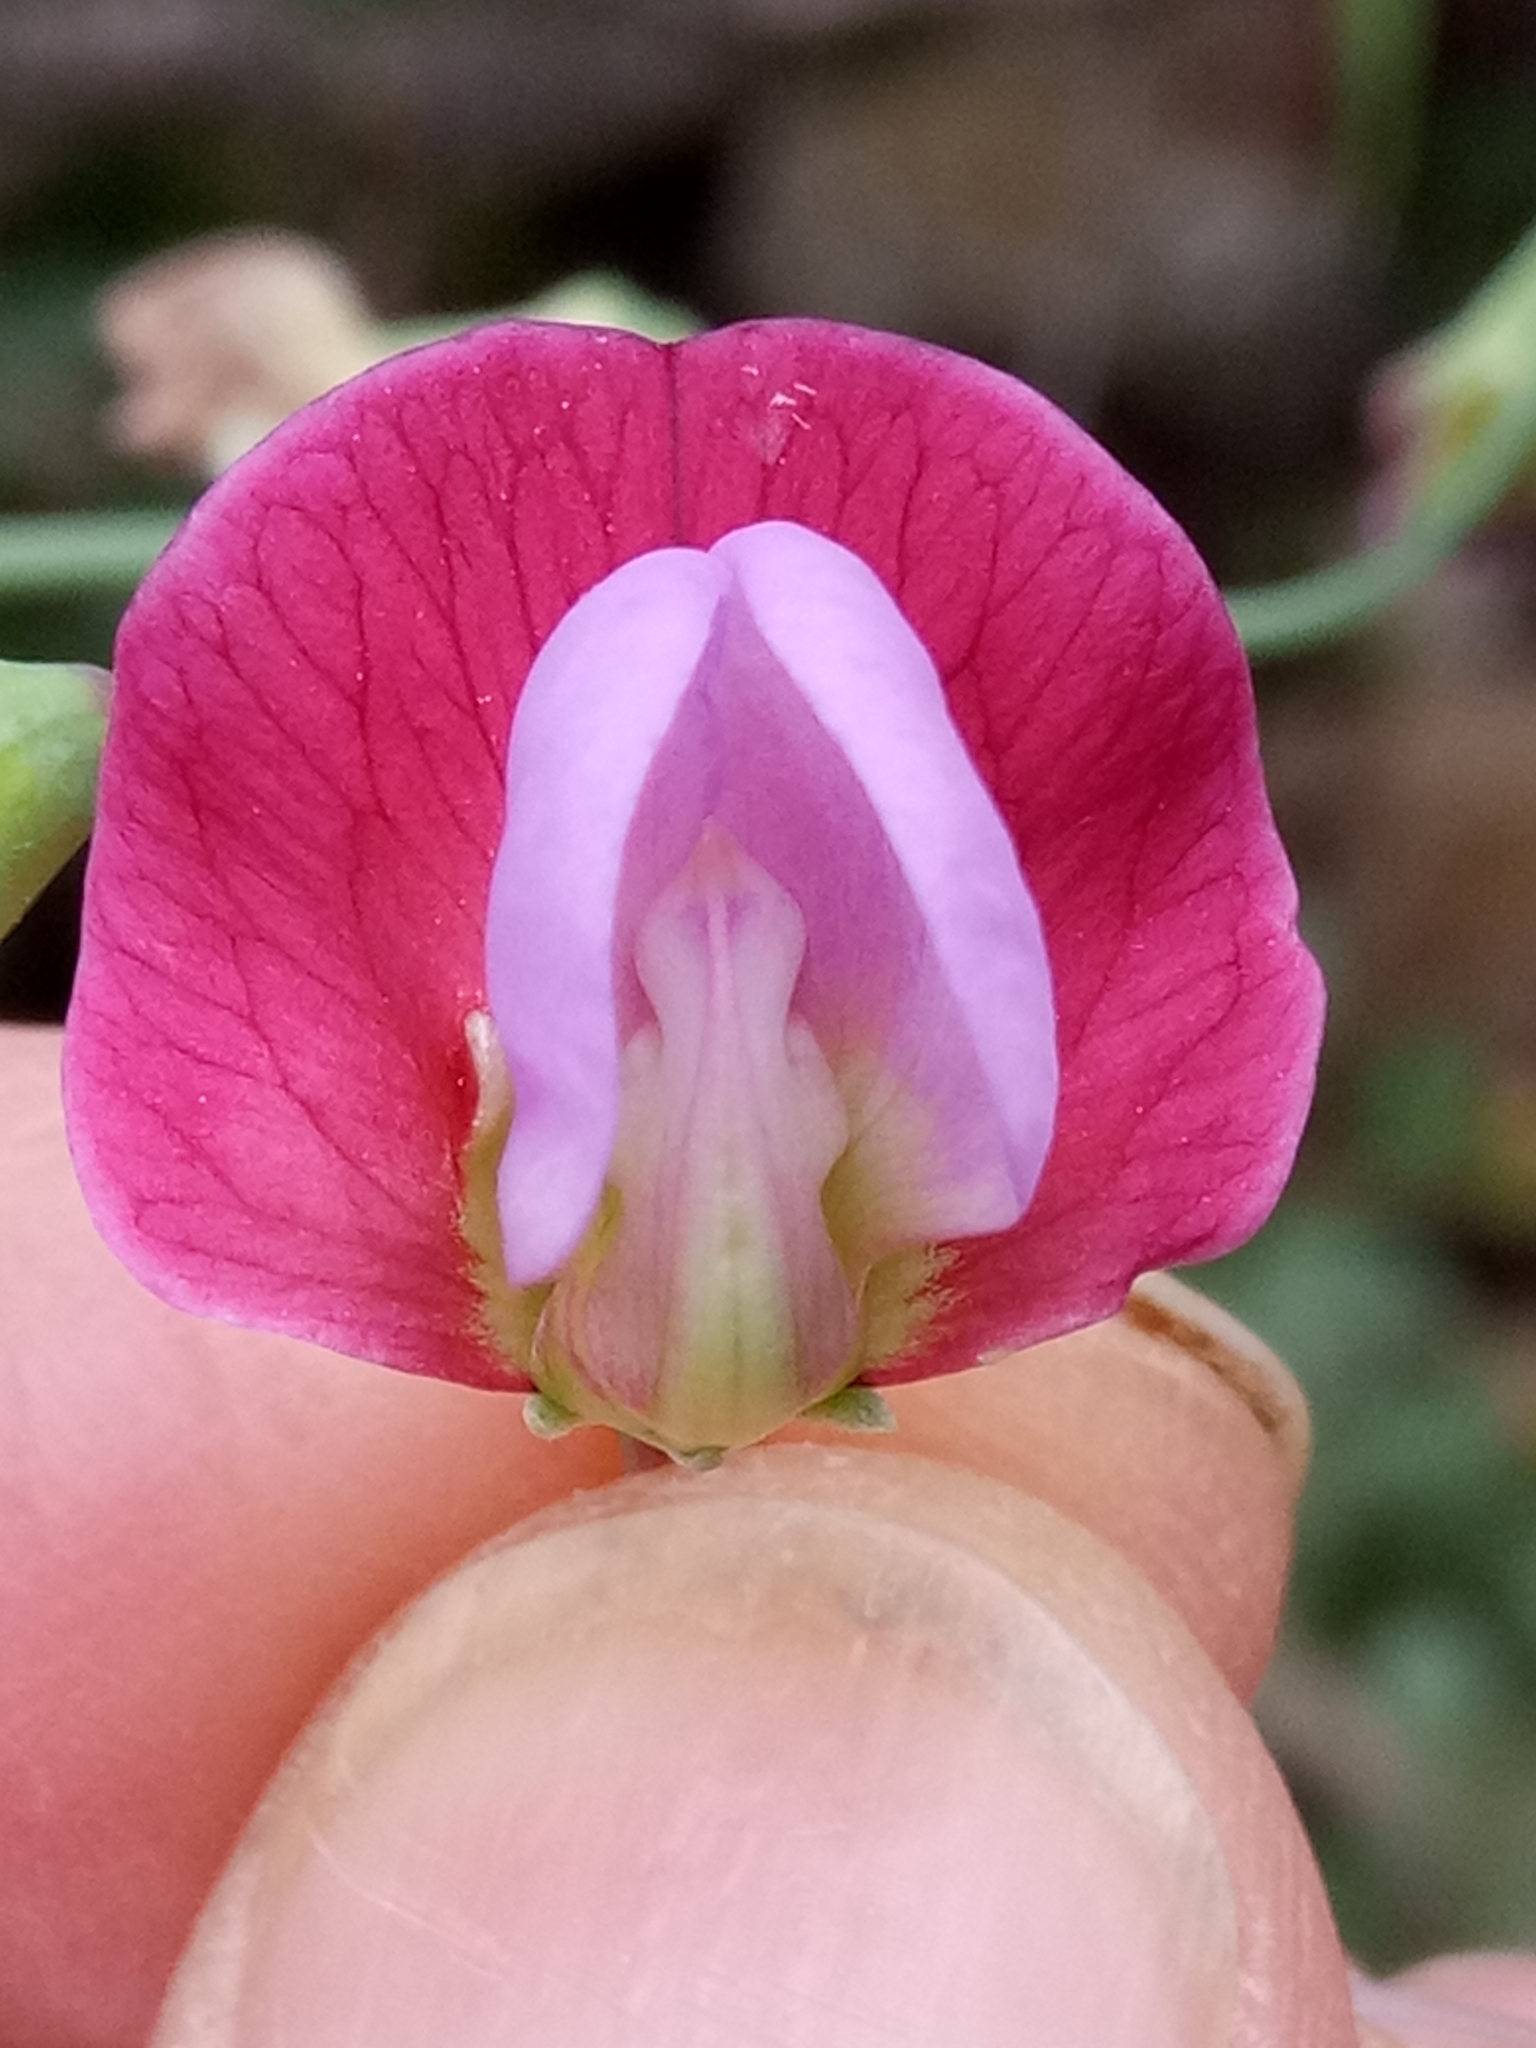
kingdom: Plantae
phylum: Tracheophyta
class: Magnoliopsida
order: Fabales
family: Fabaceae
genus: Lathyrus
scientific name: Lathyrus clymenum
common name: Spanish vetchling
